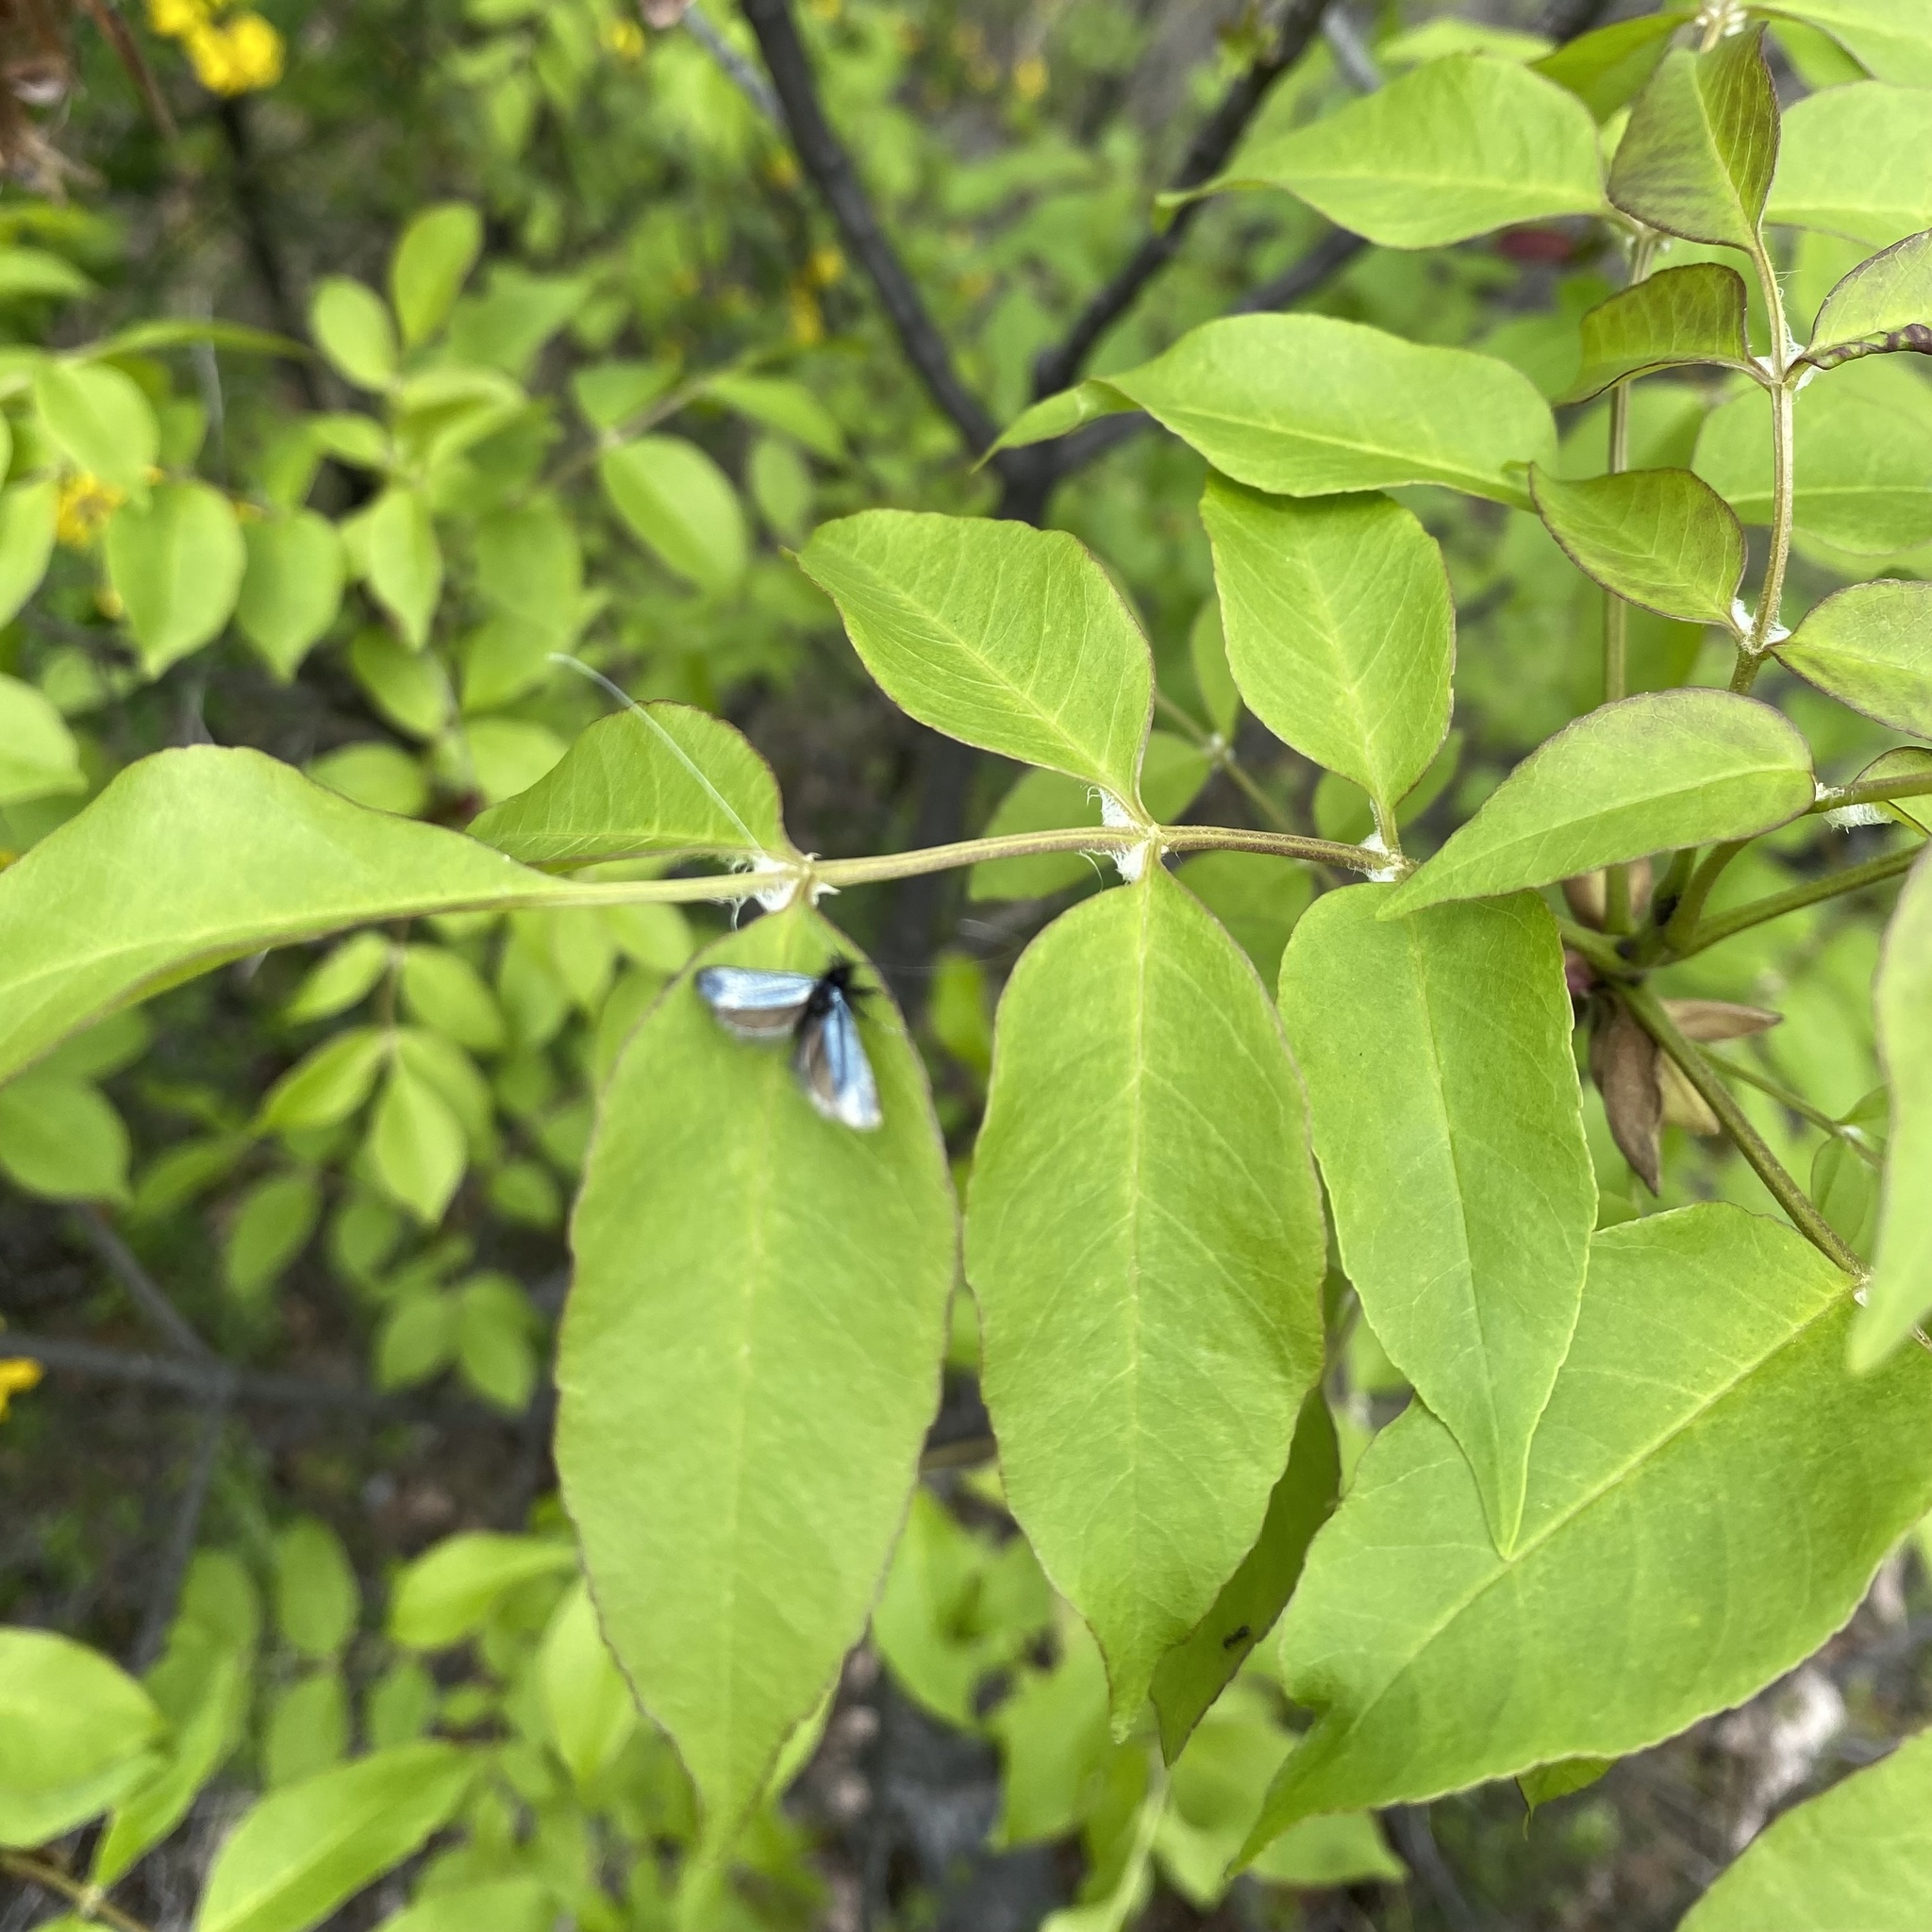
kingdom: Plantae
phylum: Tracheophyta
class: Magnoliopsida
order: Lamiales
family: Oleaceae
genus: Fraxinus
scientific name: Fraxinus ornus
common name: Manna ash
